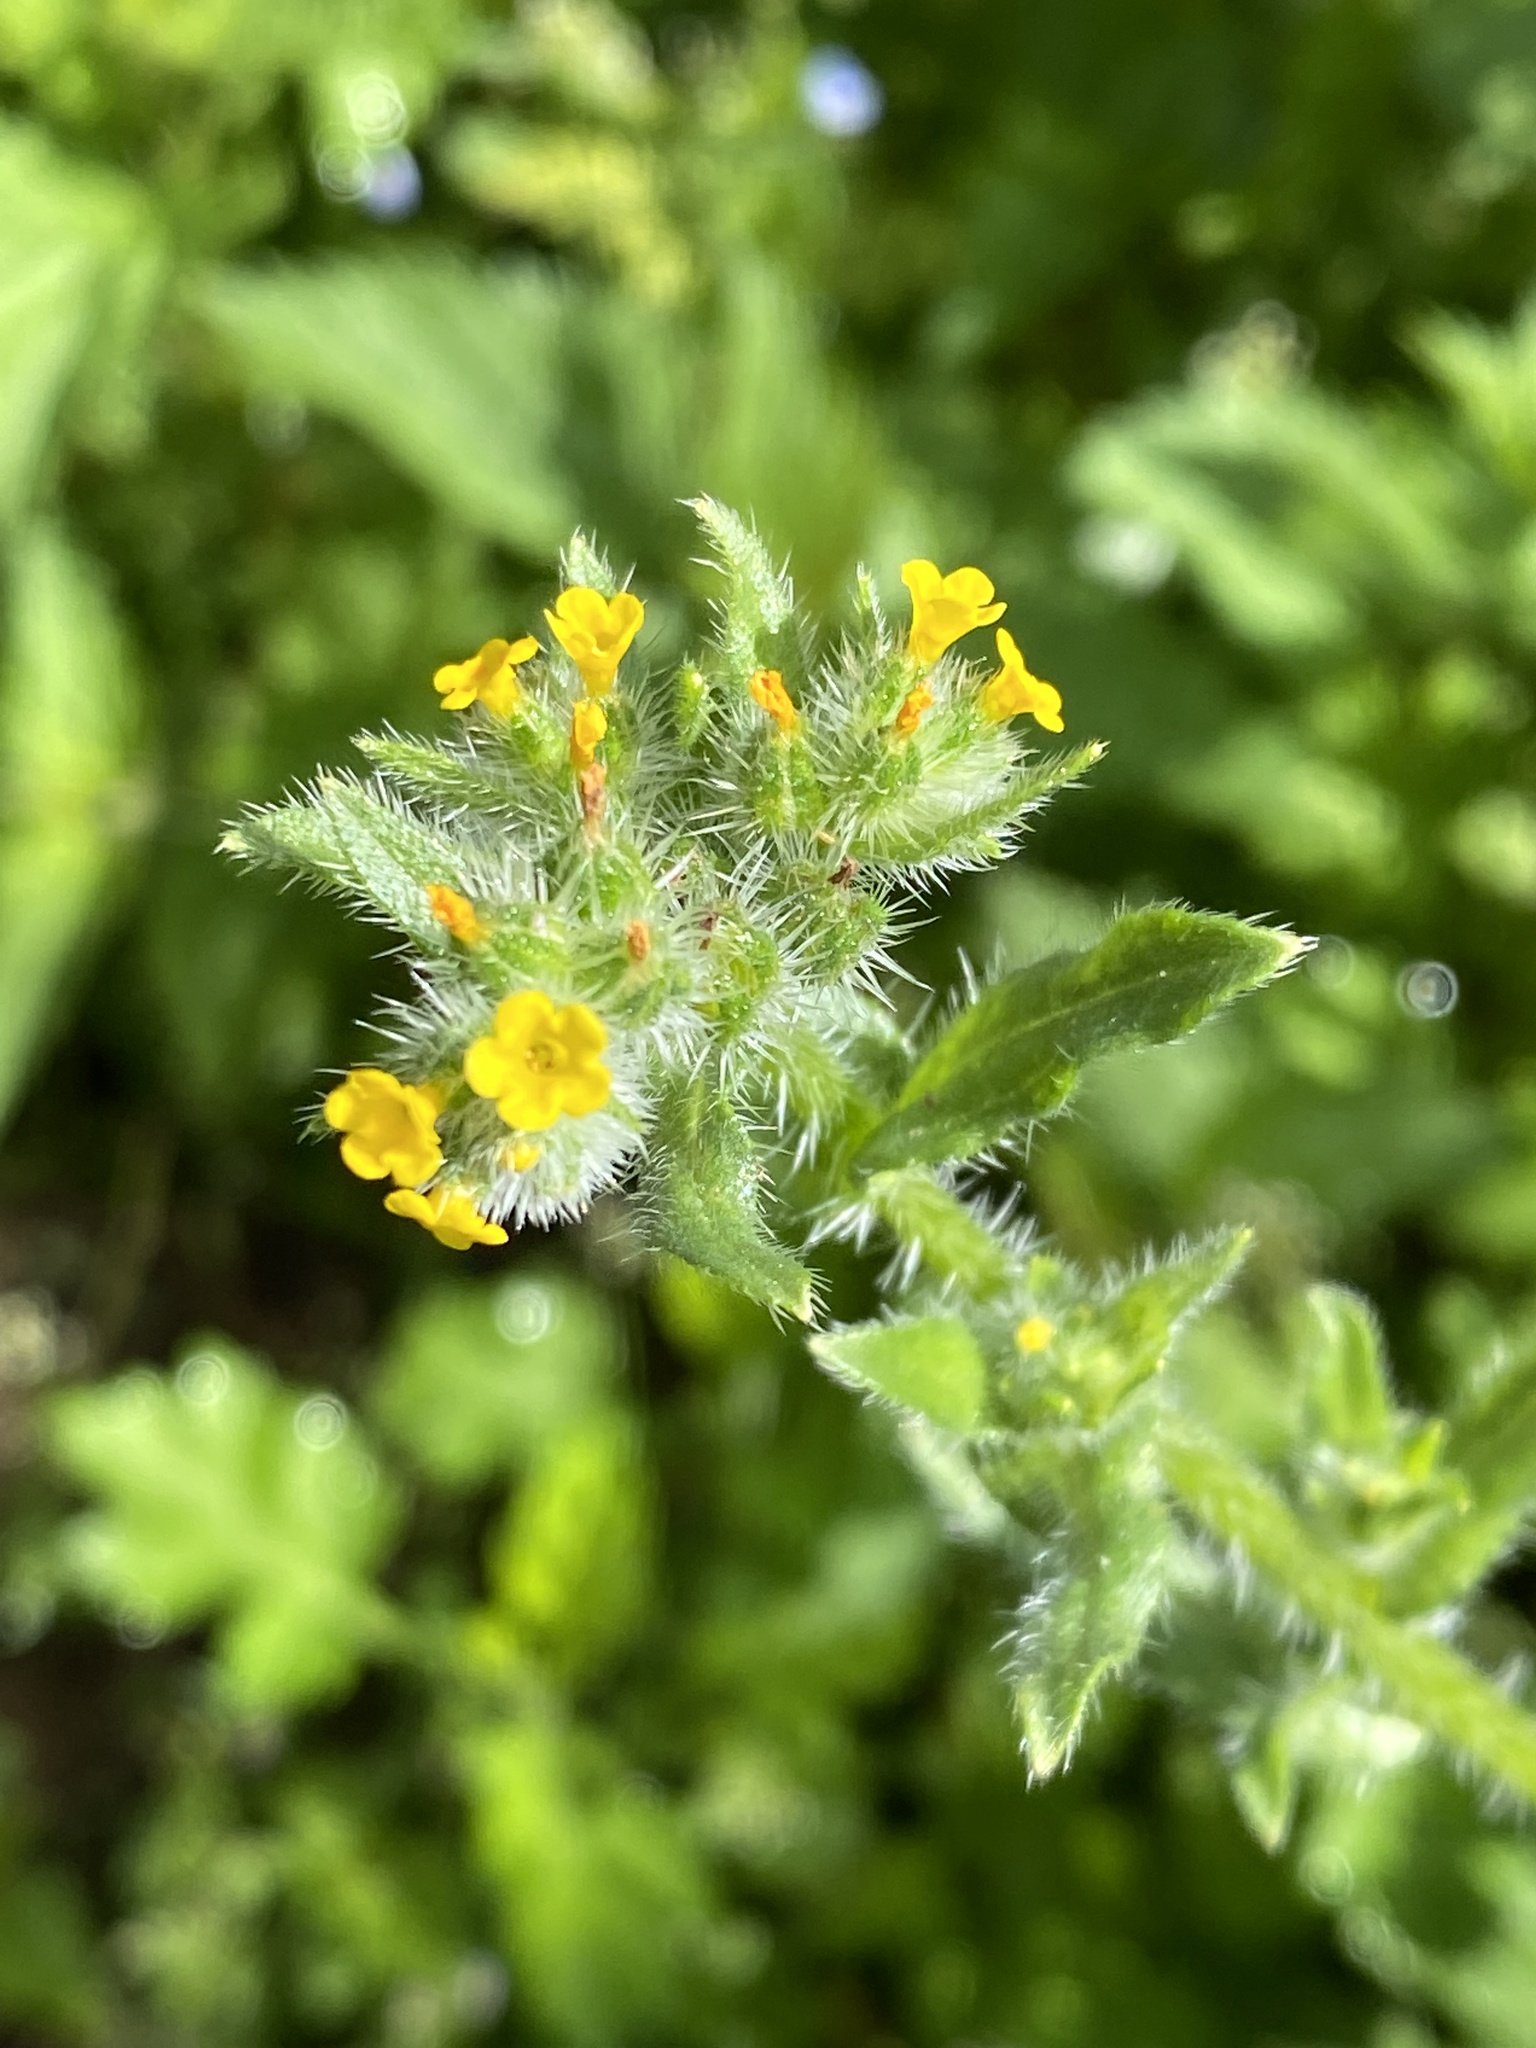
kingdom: Plantae
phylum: Tracheophyta
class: Magnoliopsida
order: Boraginales
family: Boraginaceae
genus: Amsinckia
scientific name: Amsinckia menziesii
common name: Menzies' fiddleneck
